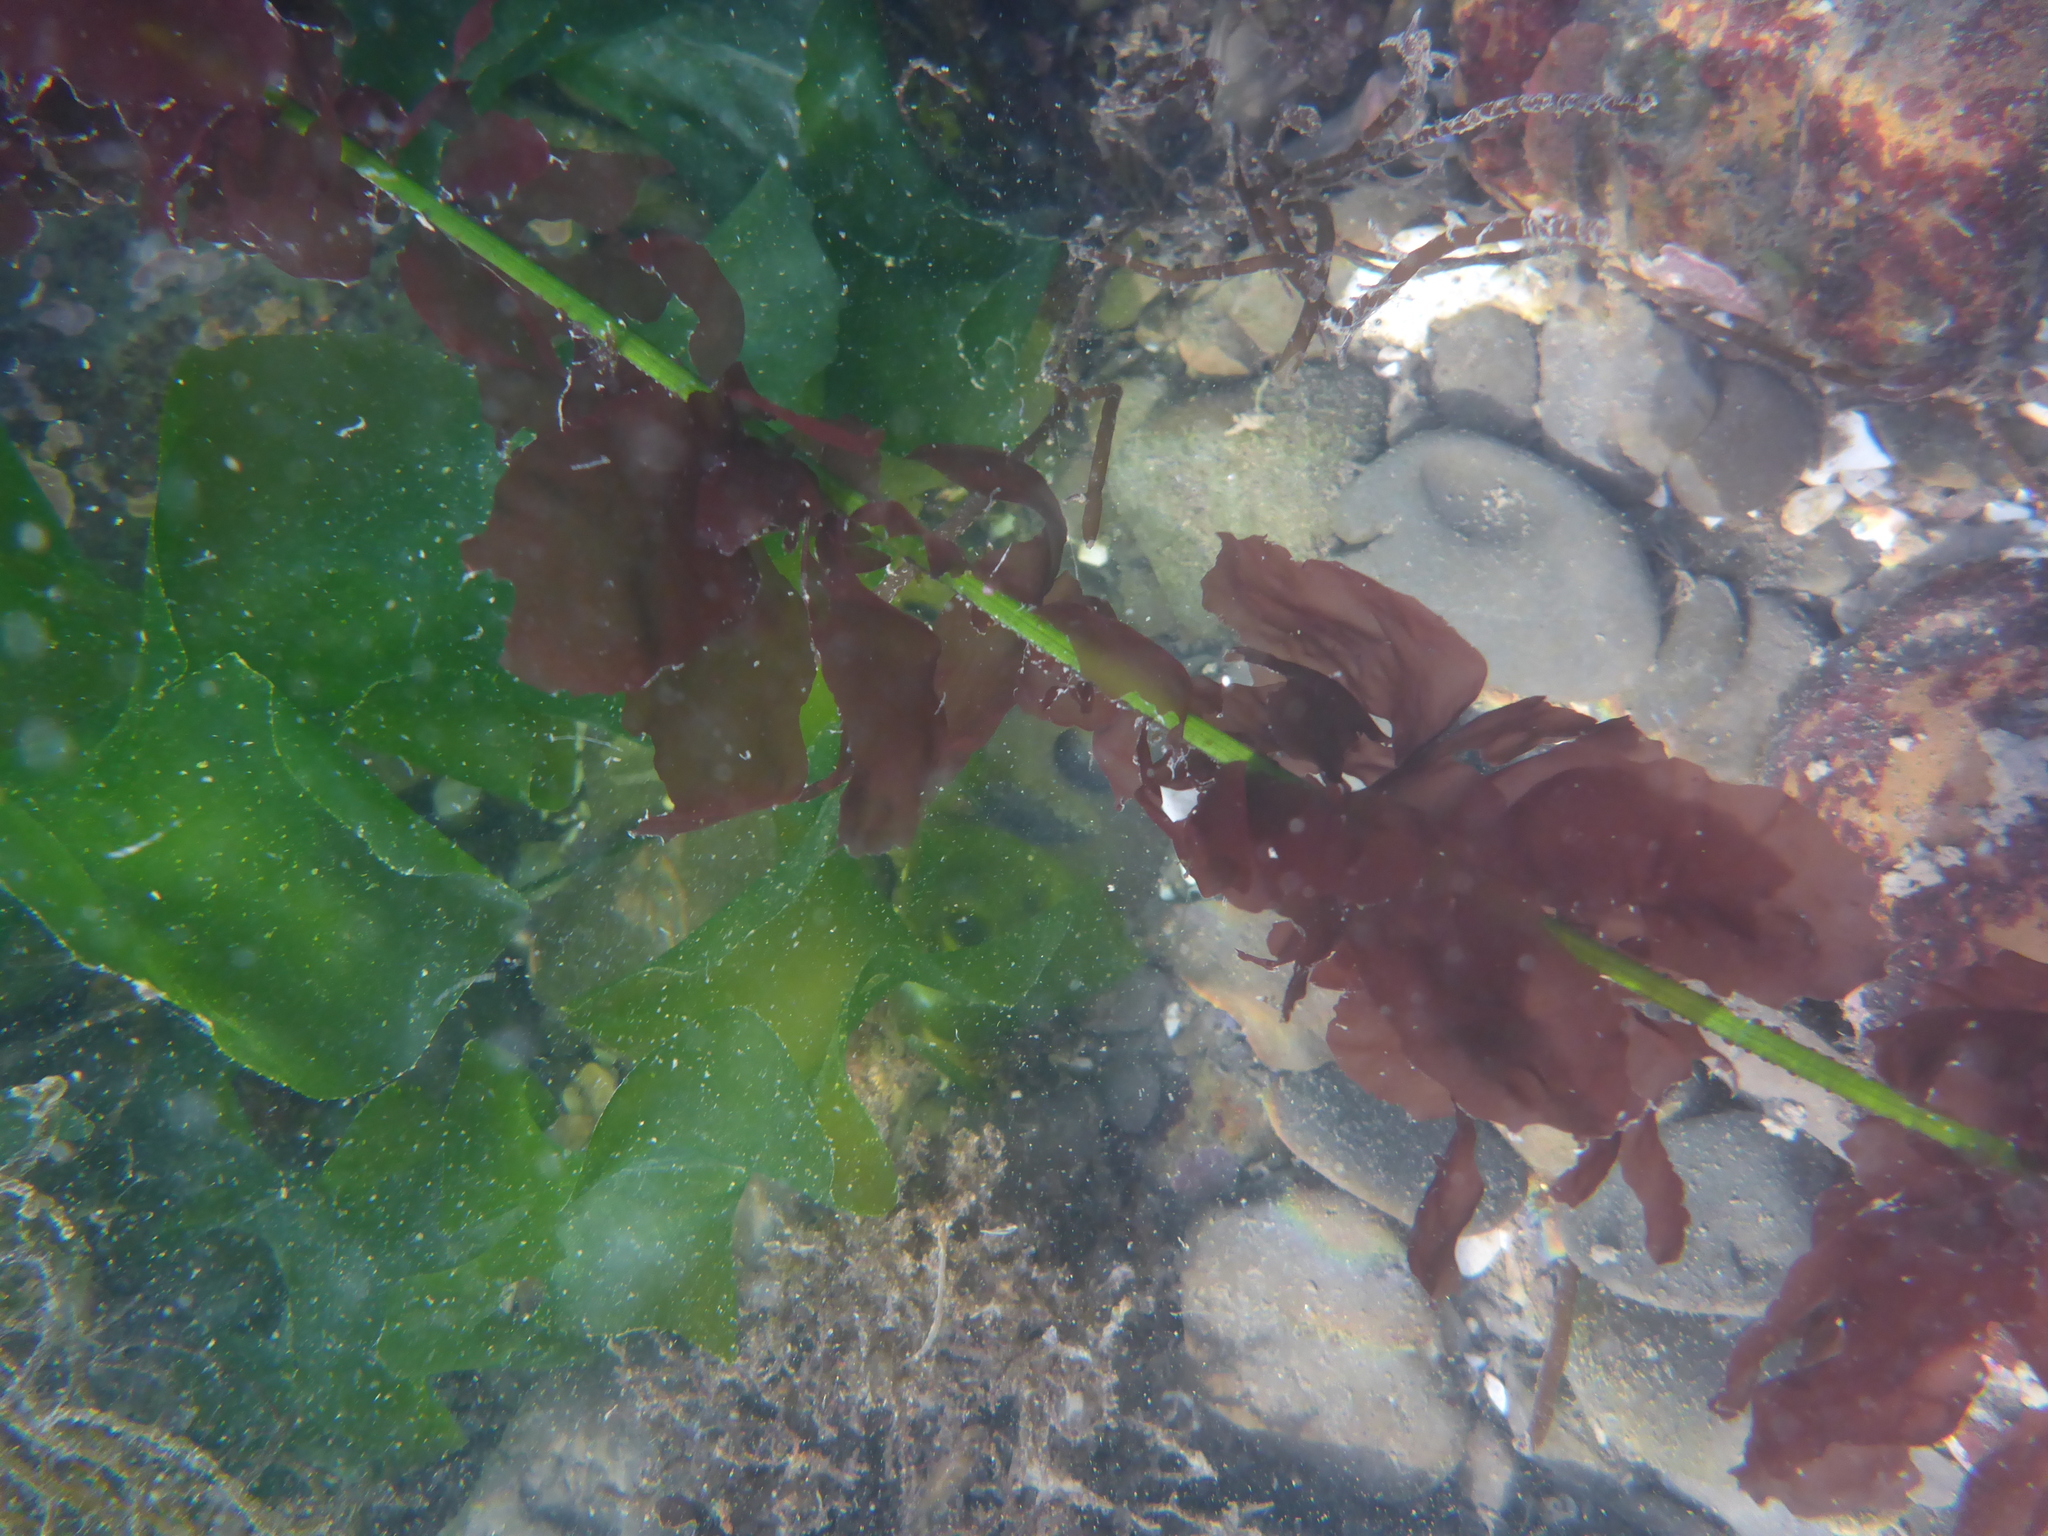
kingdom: Plantae
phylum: Rhodophyta
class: Compsopogonophyceae
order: Erythropeltidales
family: Erythrotrichiaceae
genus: Smithora
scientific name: Smithora naiadum
